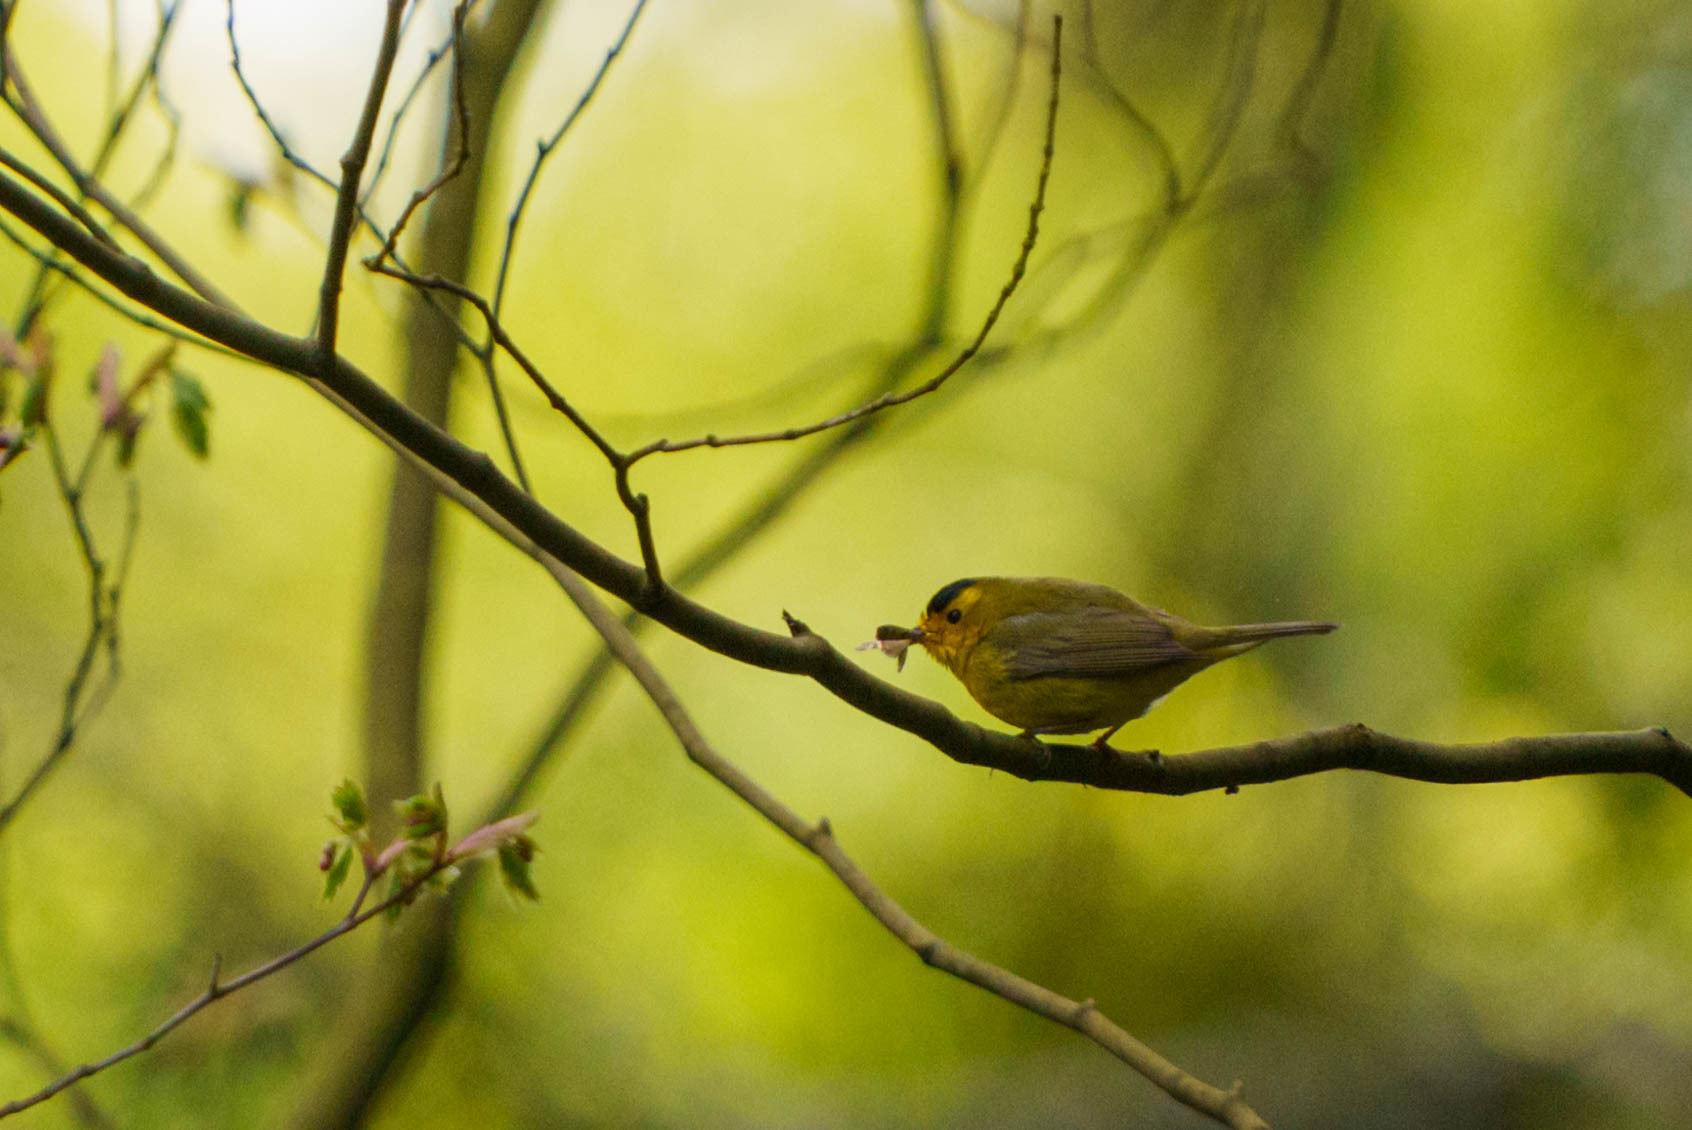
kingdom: Animalia
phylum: Chordata
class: Aves
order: Passeriformes
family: Parulidae
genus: Cardellina
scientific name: Cardellina pusilla
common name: Wilson's warbler
